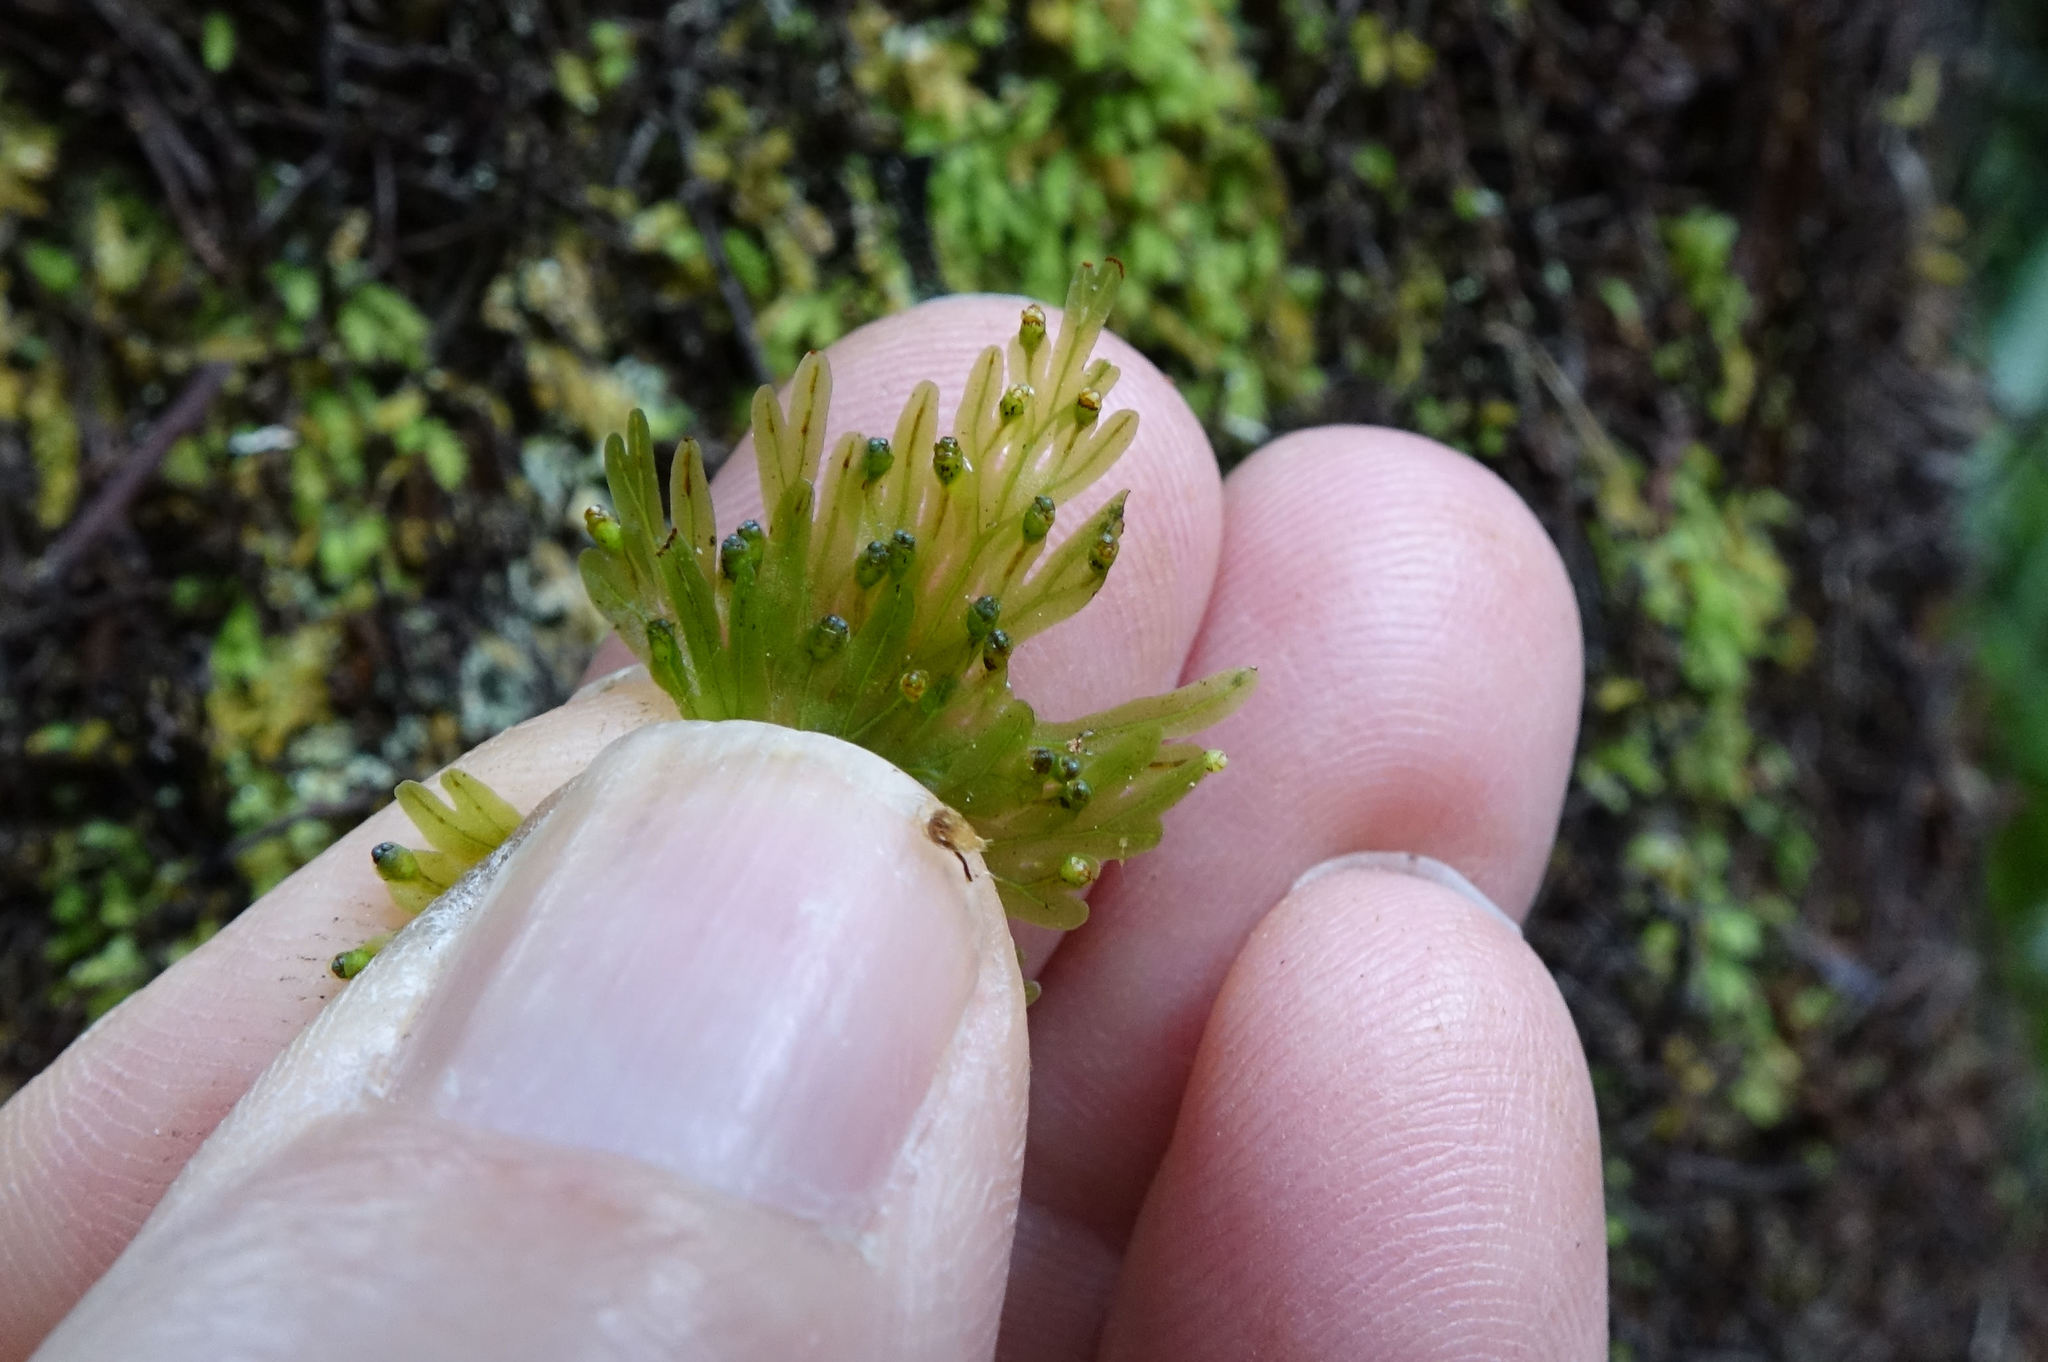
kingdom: Plantae
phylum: Tracheophyta
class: Polypodiopsida
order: Hymenophyllales
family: Hymenophyllaceae
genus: Hymenophyllum
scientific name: Hymenophyllum flabellatum
